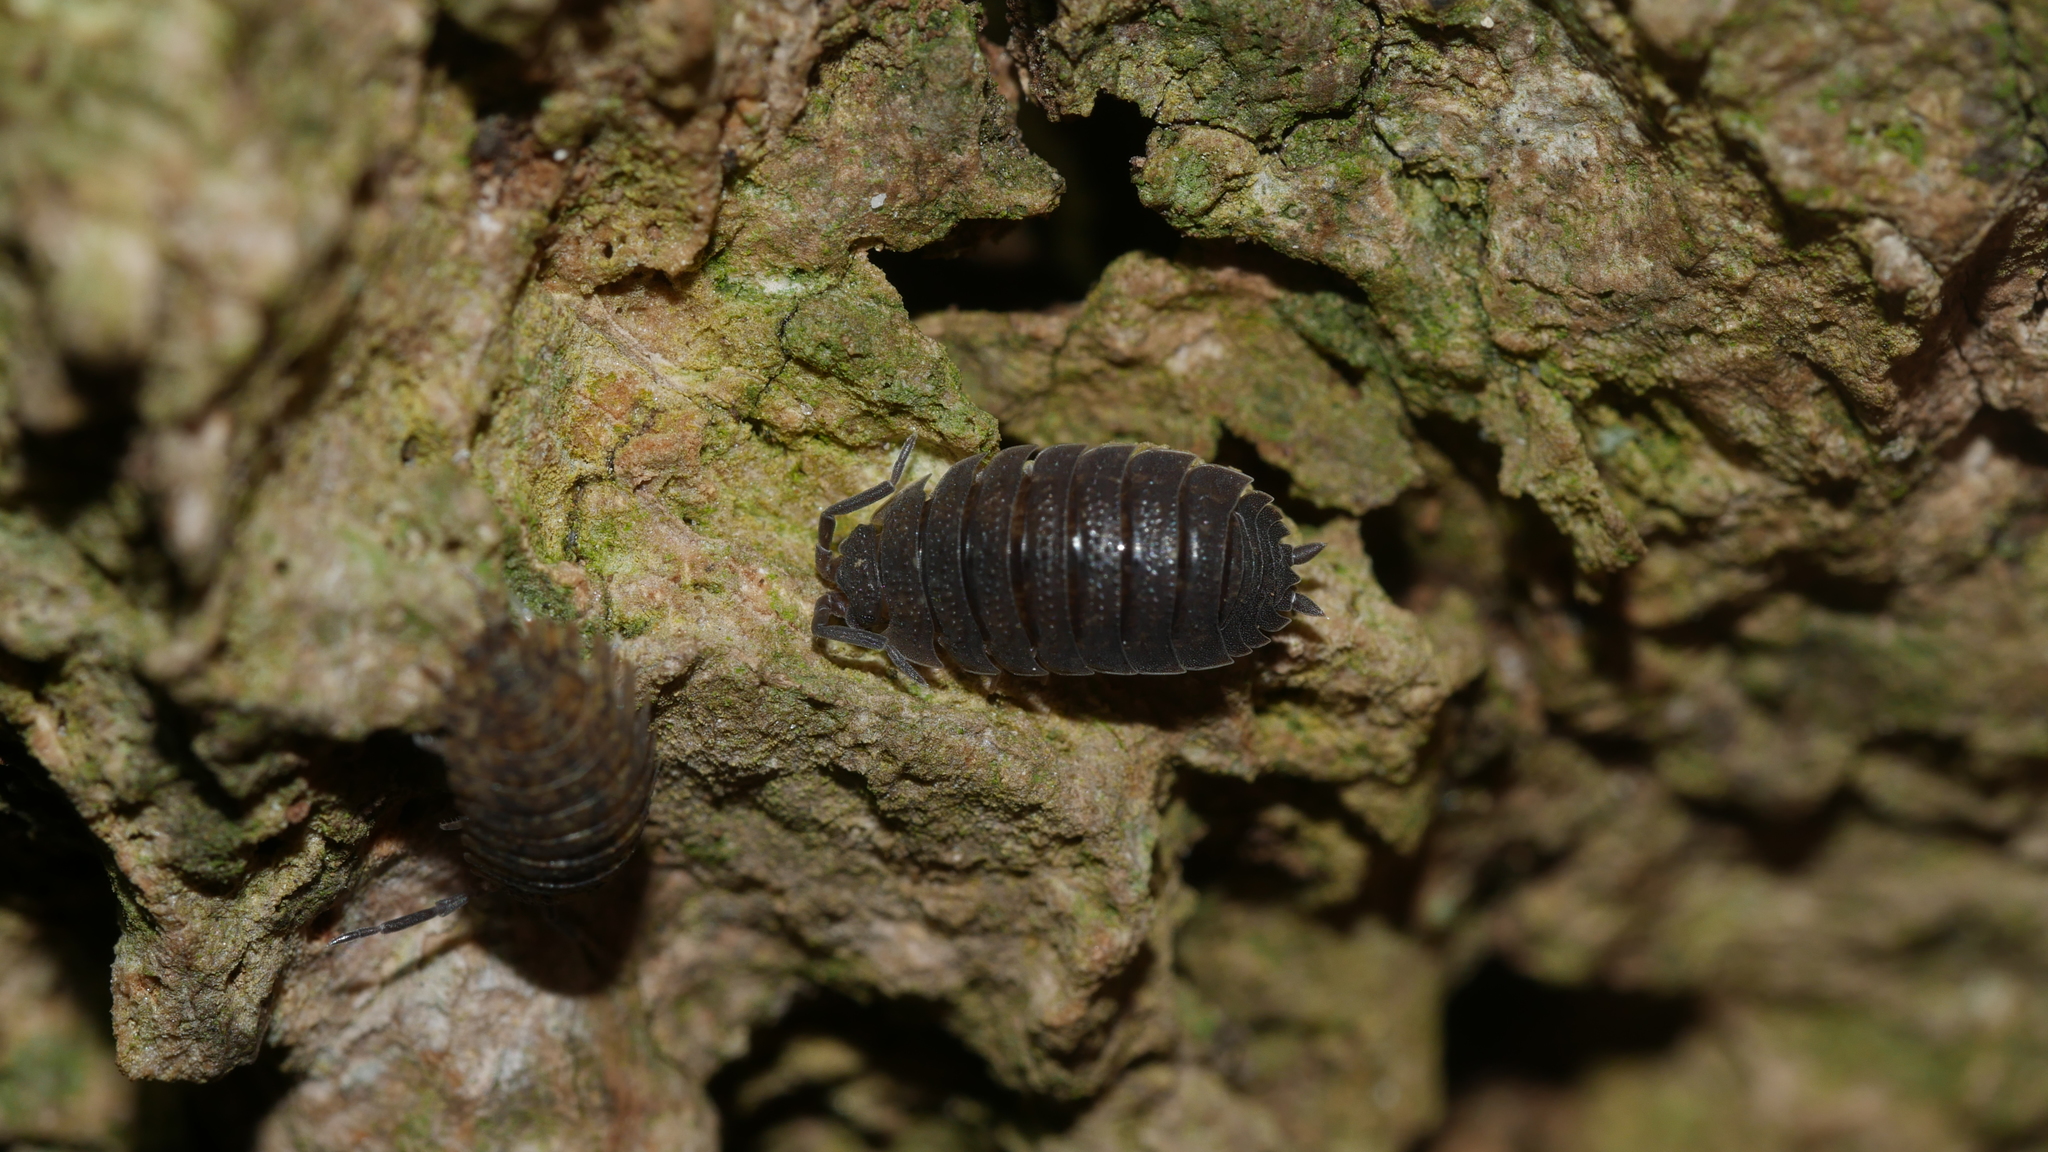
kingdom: Animalia
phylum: Arthropoda
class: Malacostraca
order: Isopoda
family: Porcellionidae
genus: Porcellio
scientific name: Porcellio scaber
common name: Common rough woodlouse
